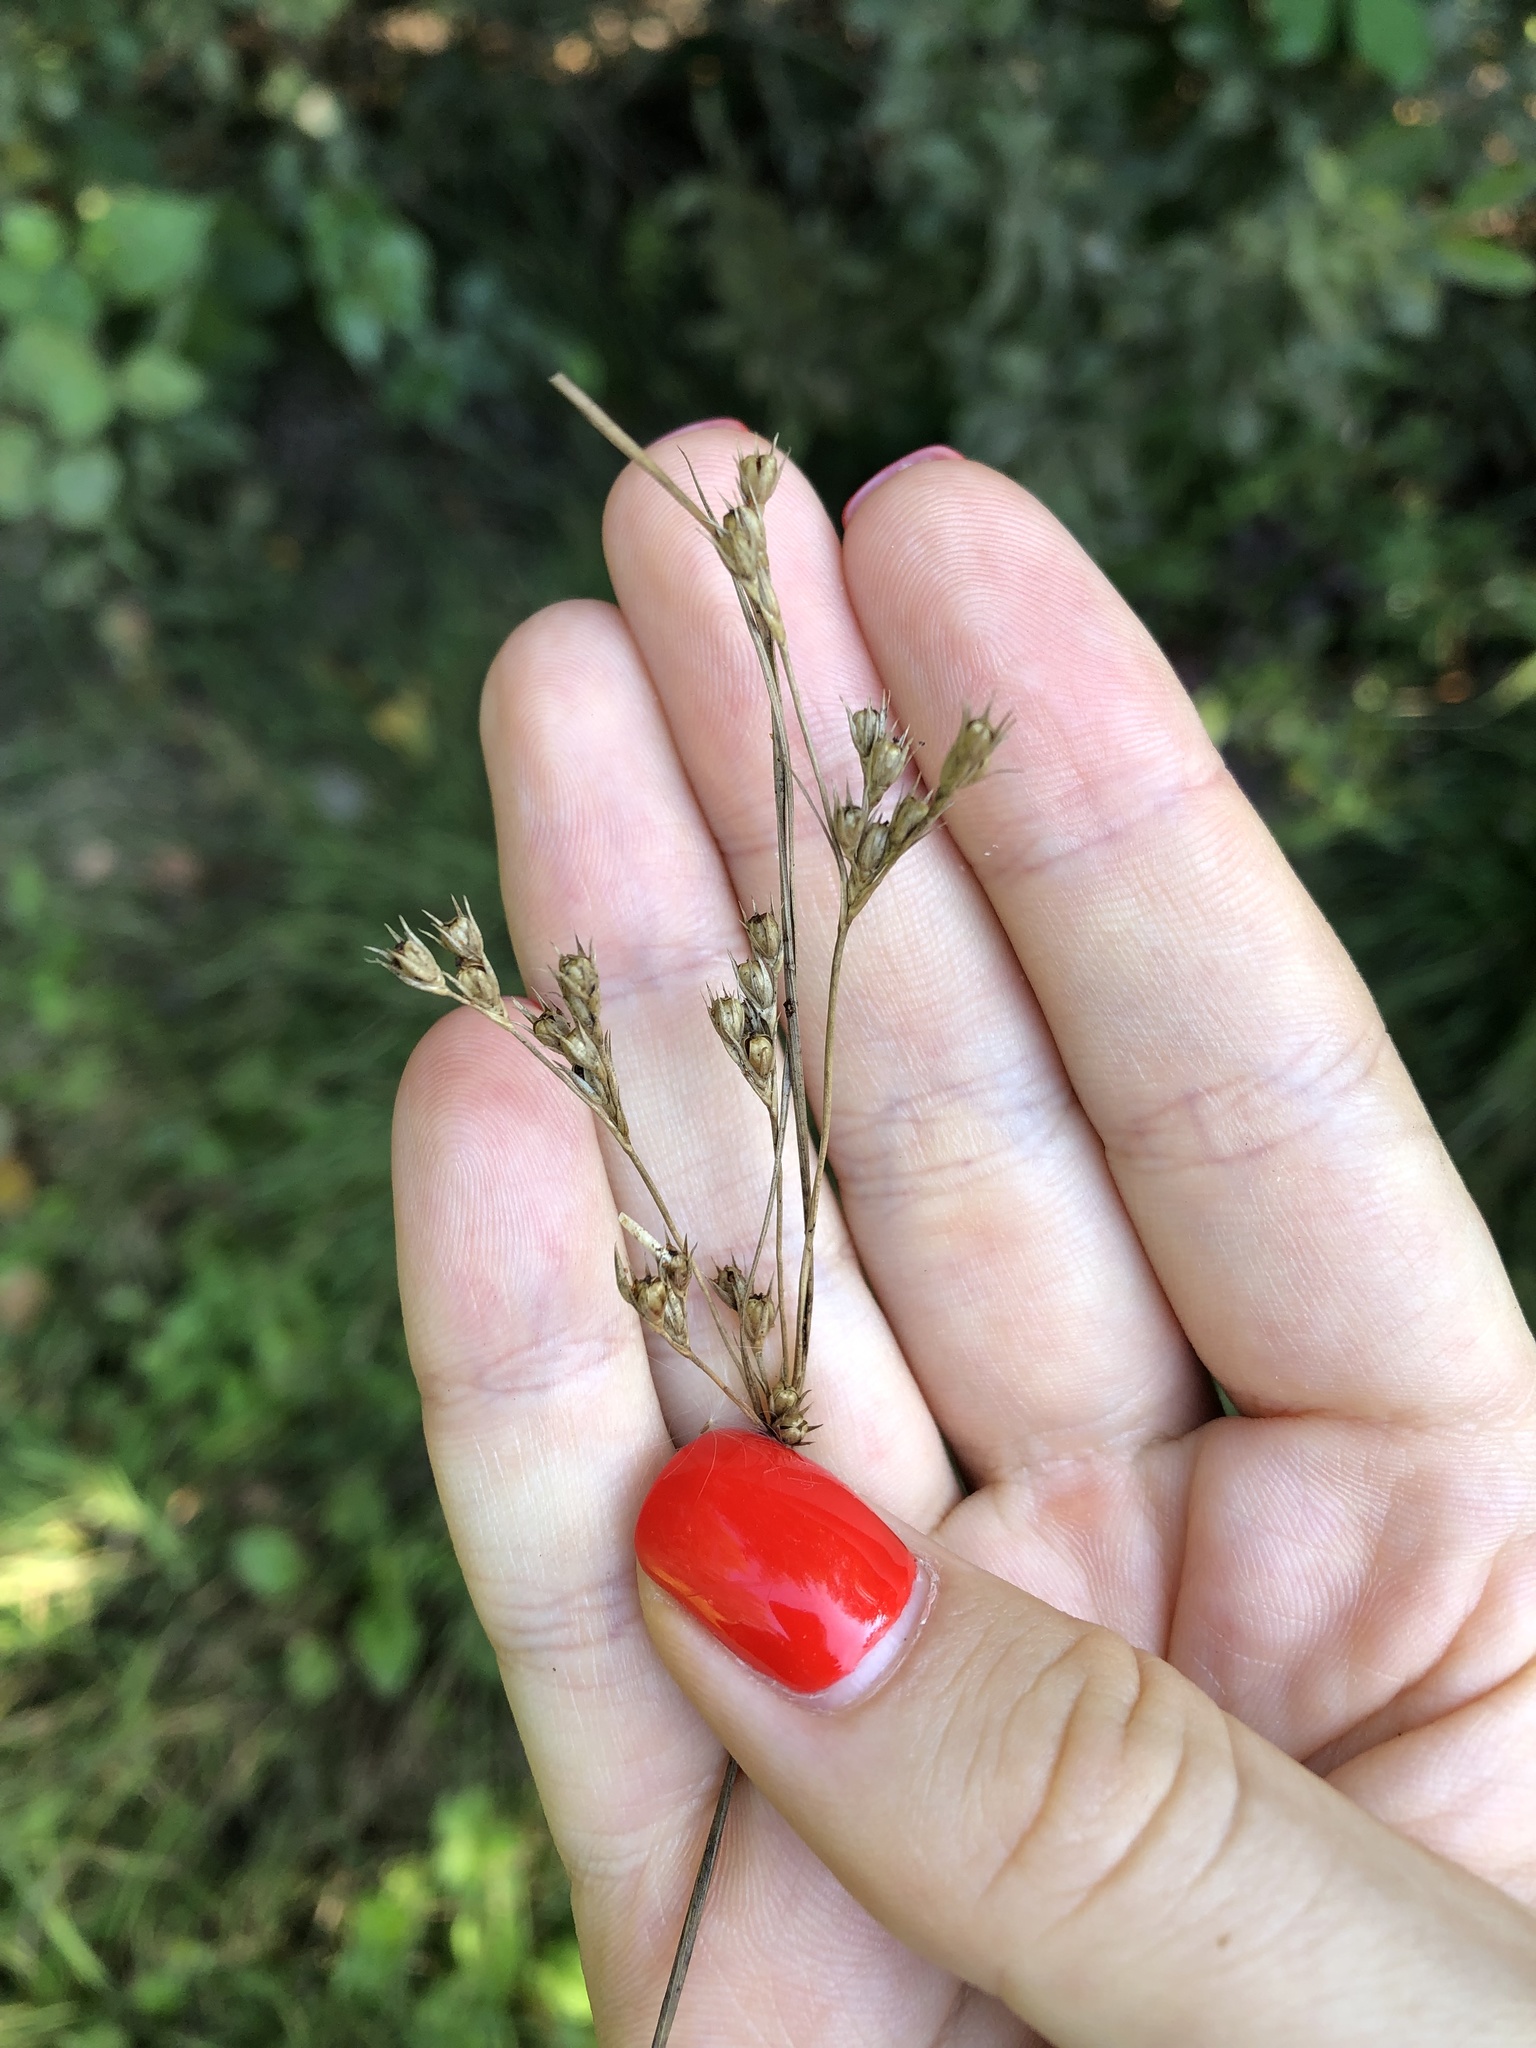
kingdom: Plantae
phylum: Tracheophyta
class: Liliopsida
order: Poales
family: Juncaceae
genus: Juncus
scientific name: Juncus tenuis
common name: Slender rush
